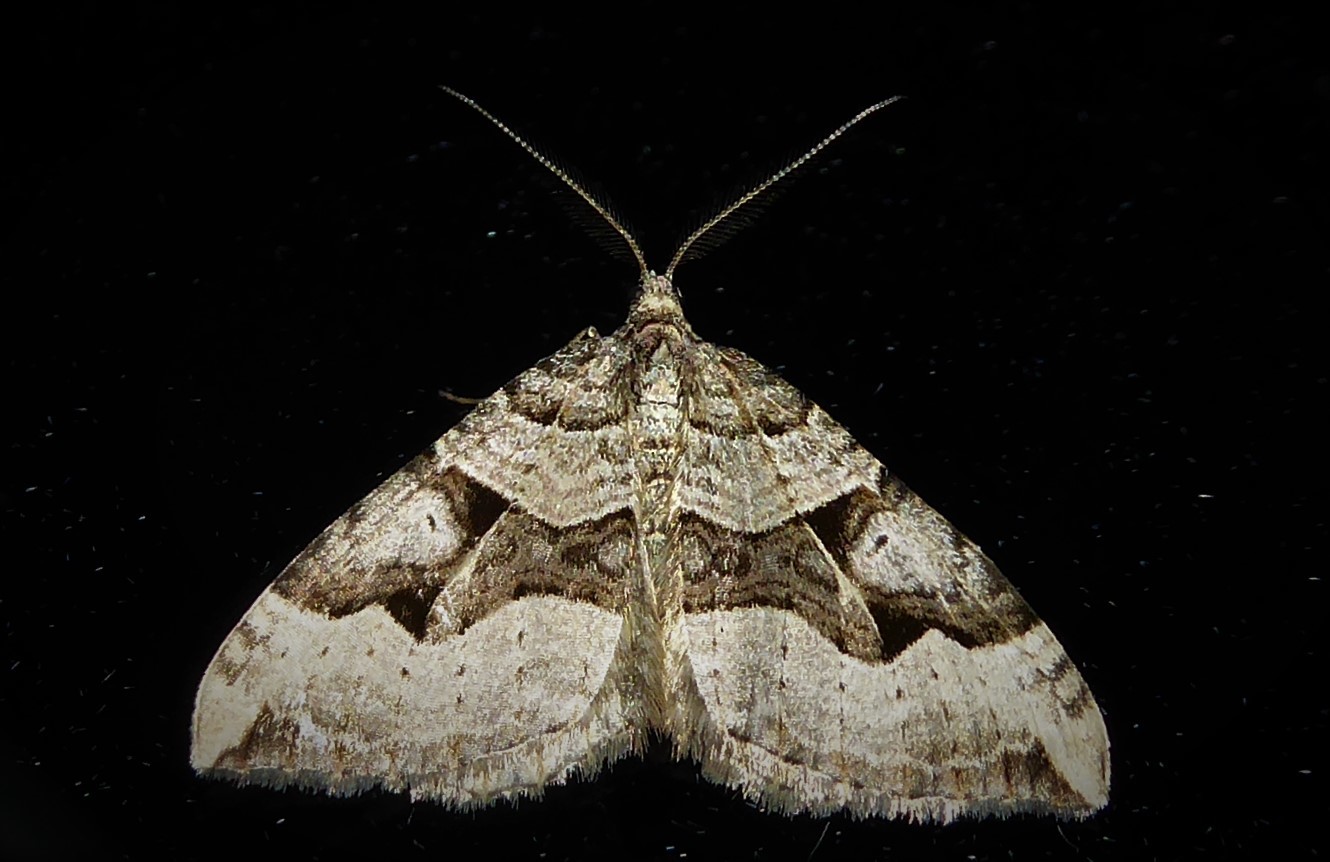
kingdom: Animalia
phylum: Arthropoda
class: Insecta
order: Lepidoptera
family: Geometridae
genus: Xanthorhoe
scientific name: Xanthorhoe semifissata
